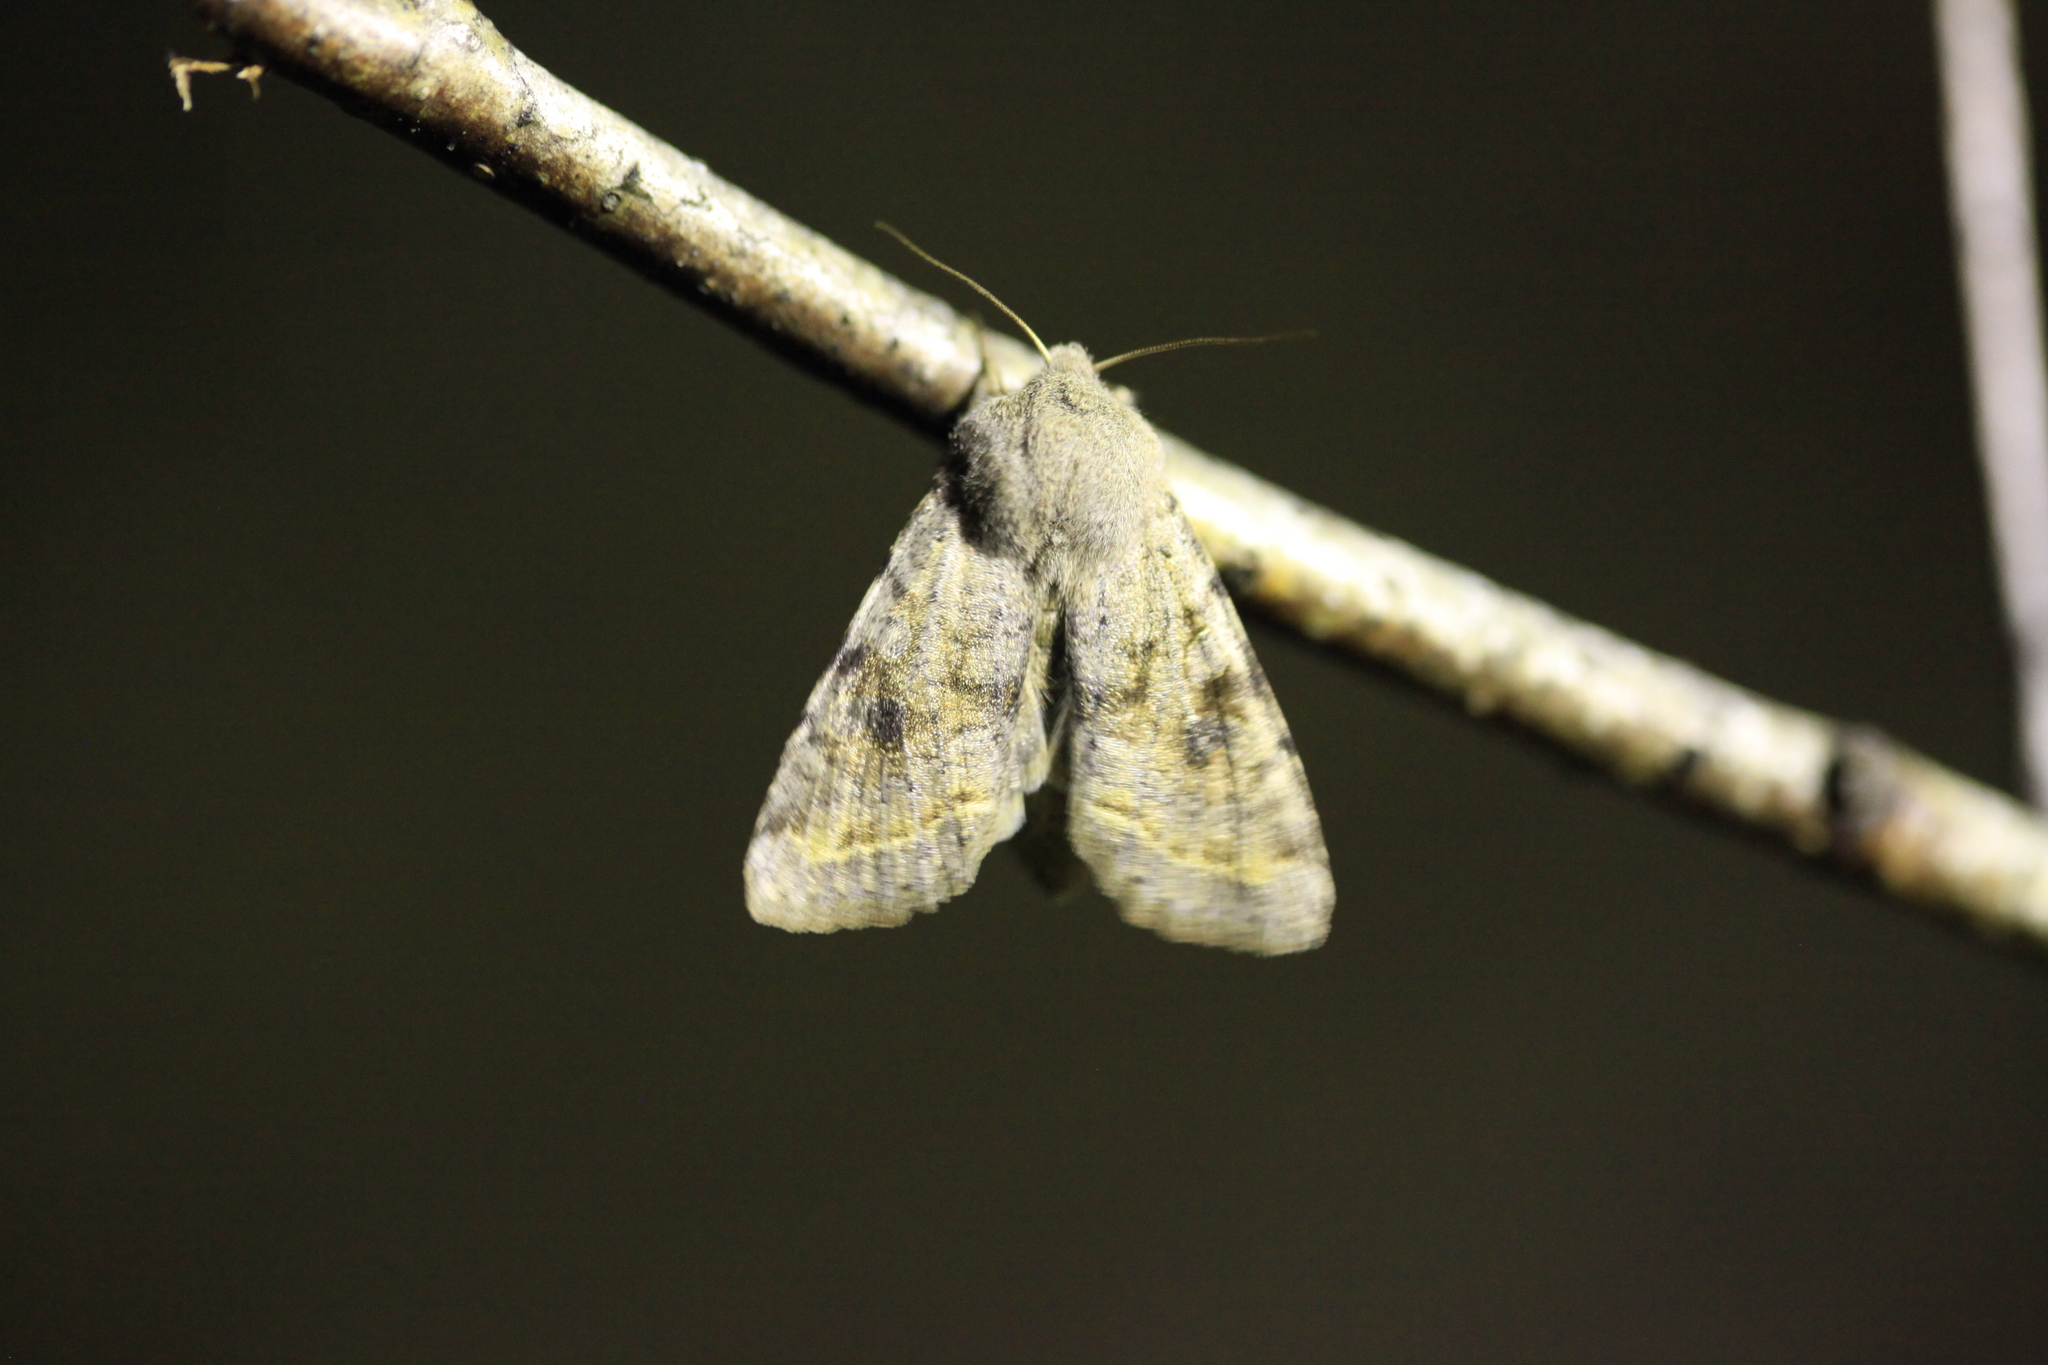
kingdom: Animalia
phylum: Arthropoda
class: Insecta
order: Lepidoptera
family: Noctuidae
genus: Orthosia
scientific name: Orthosia incerta
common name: Clouded drab
